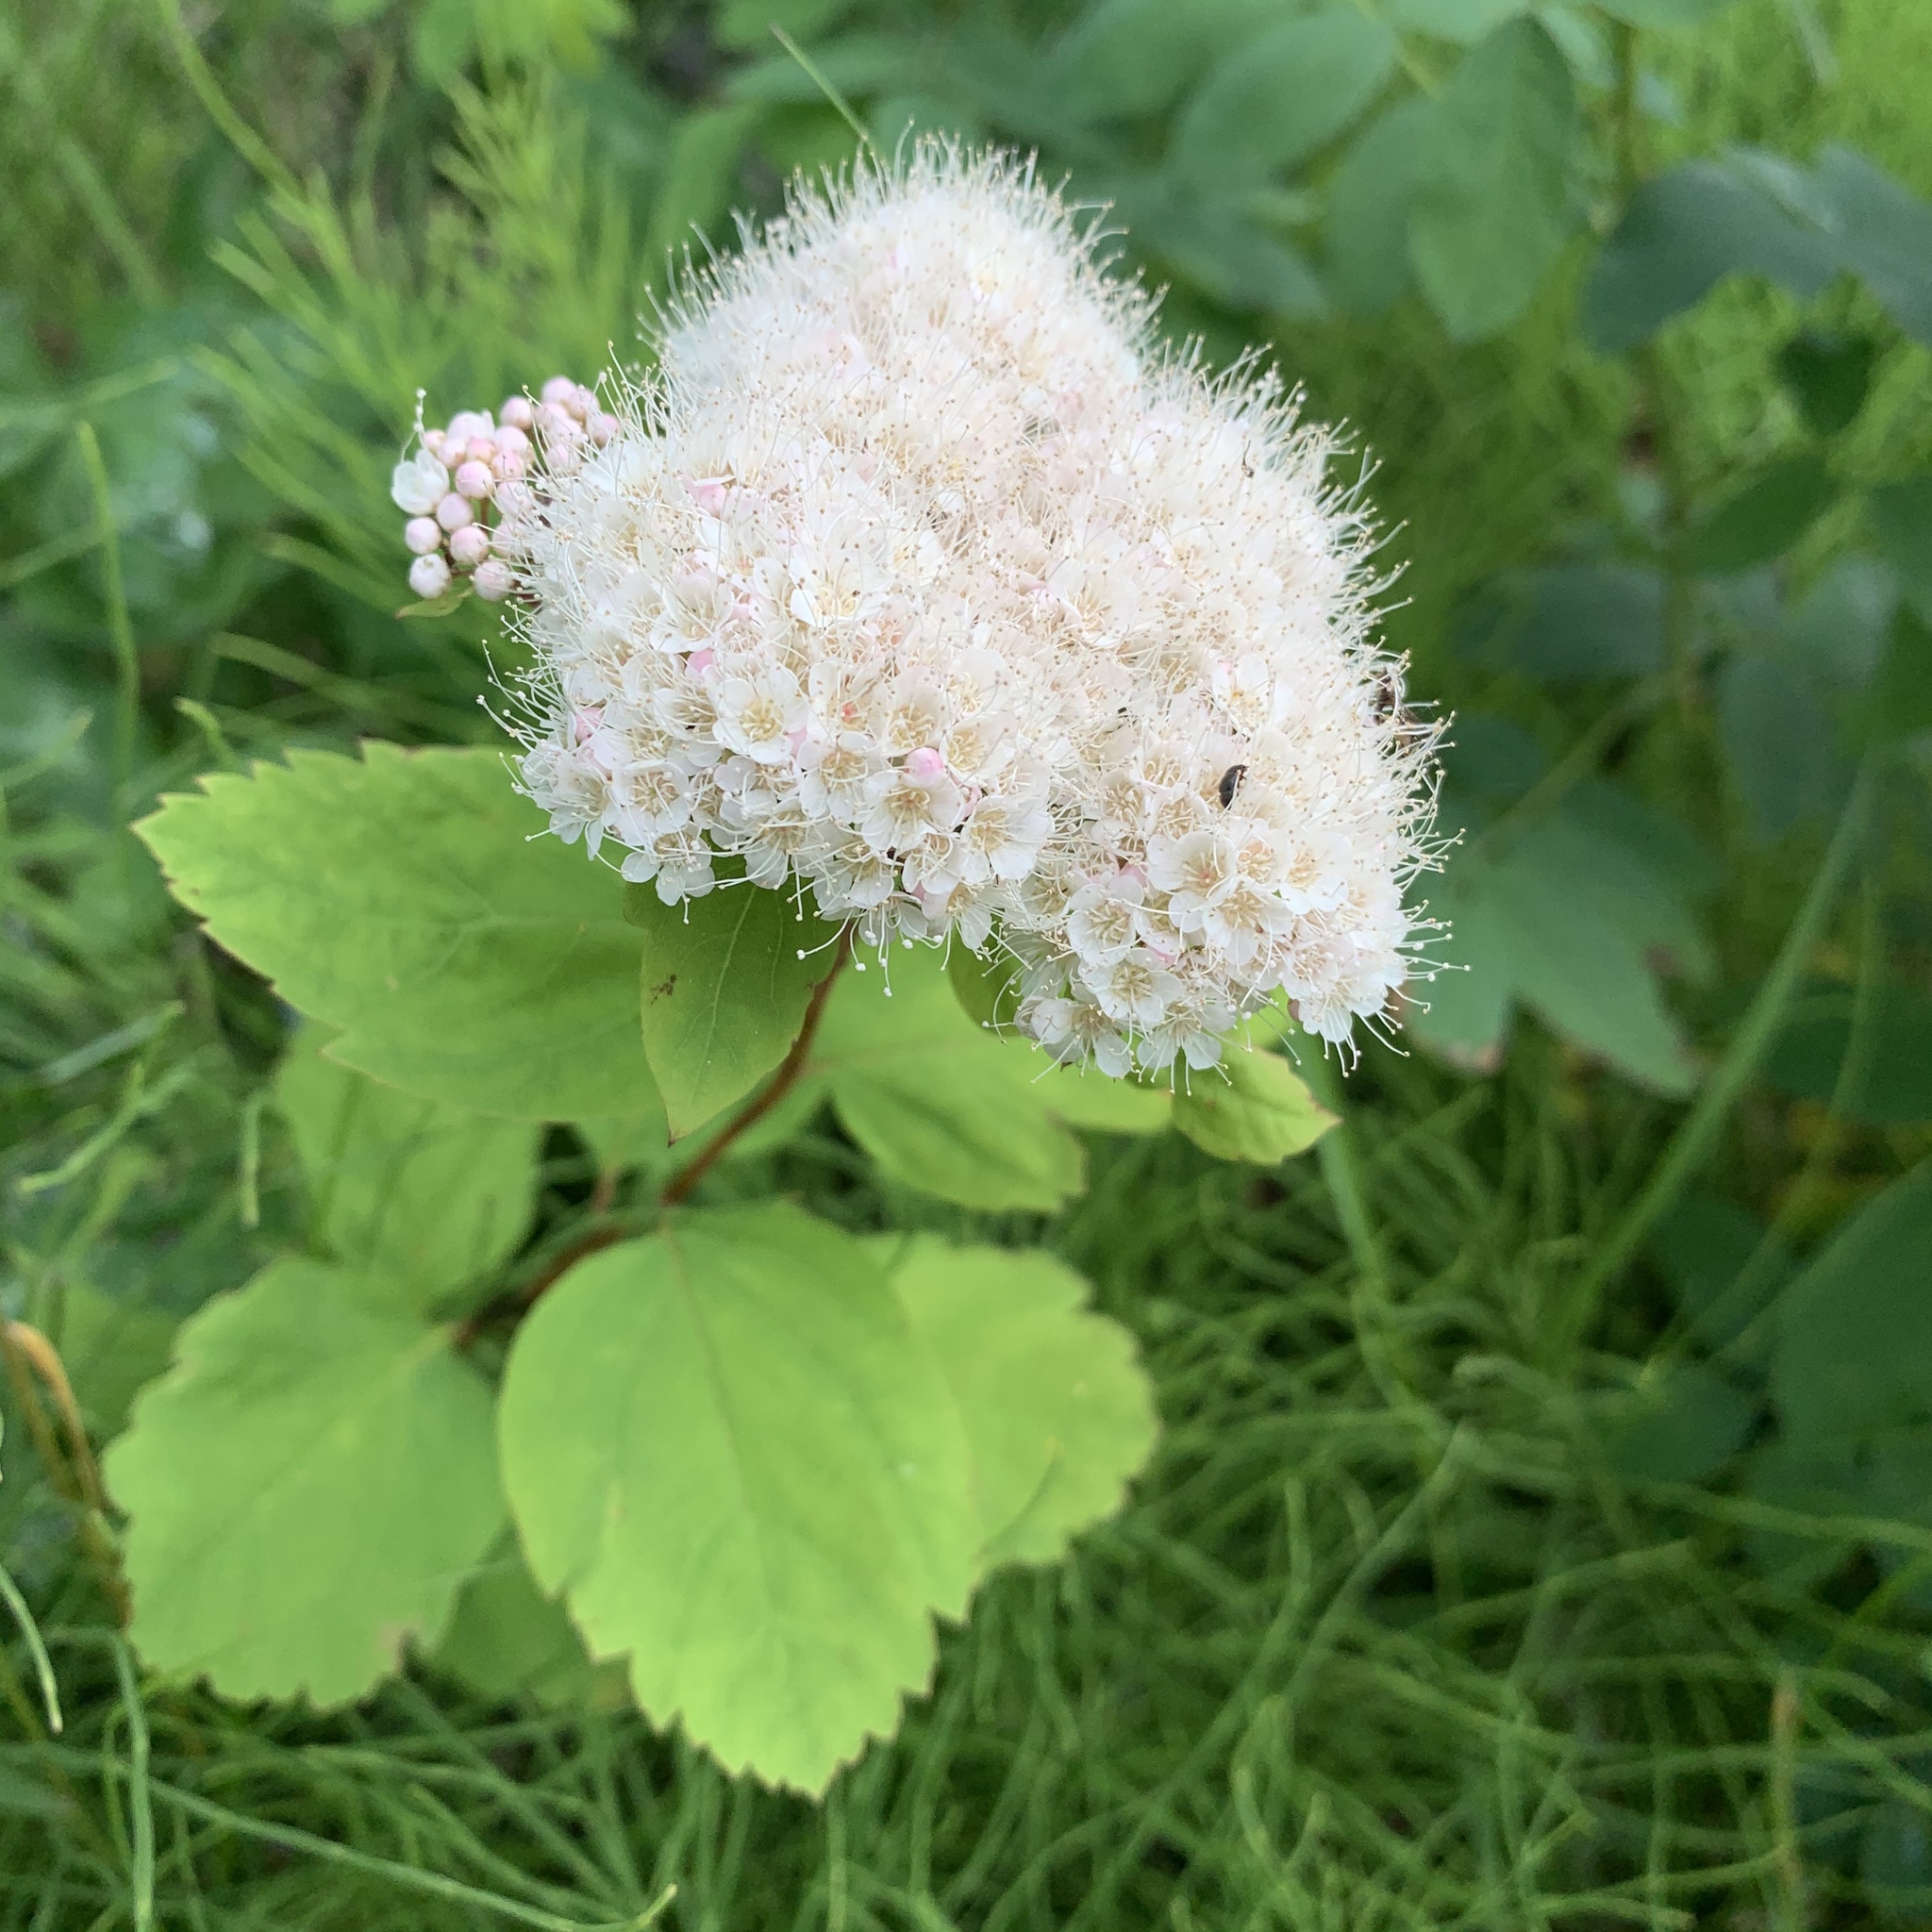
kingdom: Plantae
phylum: Tracheophyta
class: Magnoliopsida
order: Rosales
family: Rosaceae
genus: Spiraea
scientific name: Spiraea lucida
